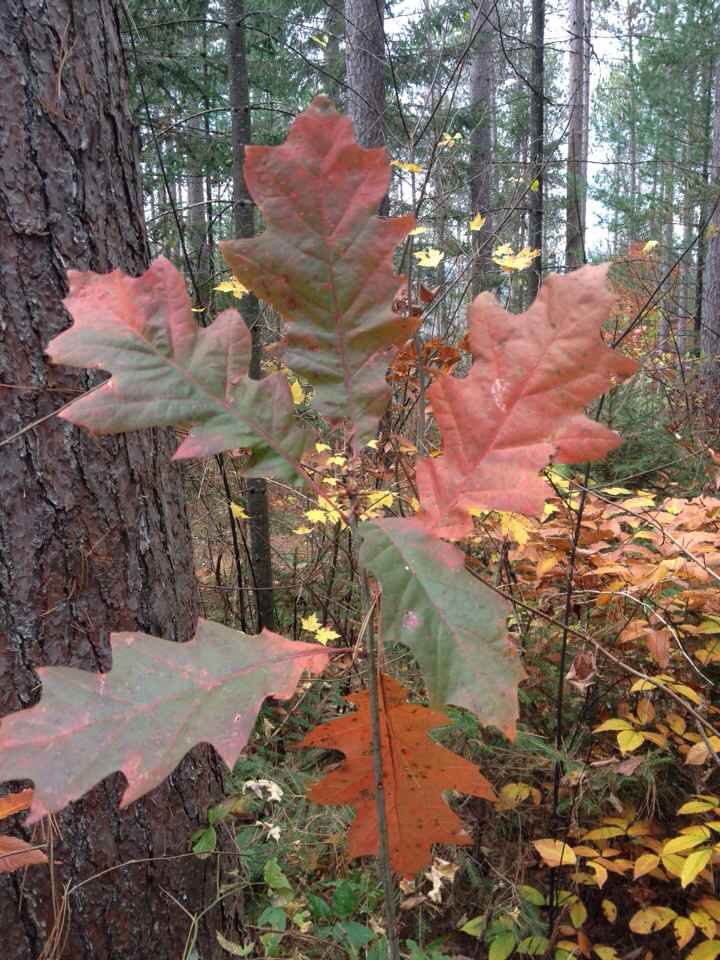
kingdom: Plantae
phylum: Tracheophyta
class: Magnoliopsida
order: Fagales
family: Fagaceae
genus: Quercus
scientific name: Quercus rubra
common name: Red oak
